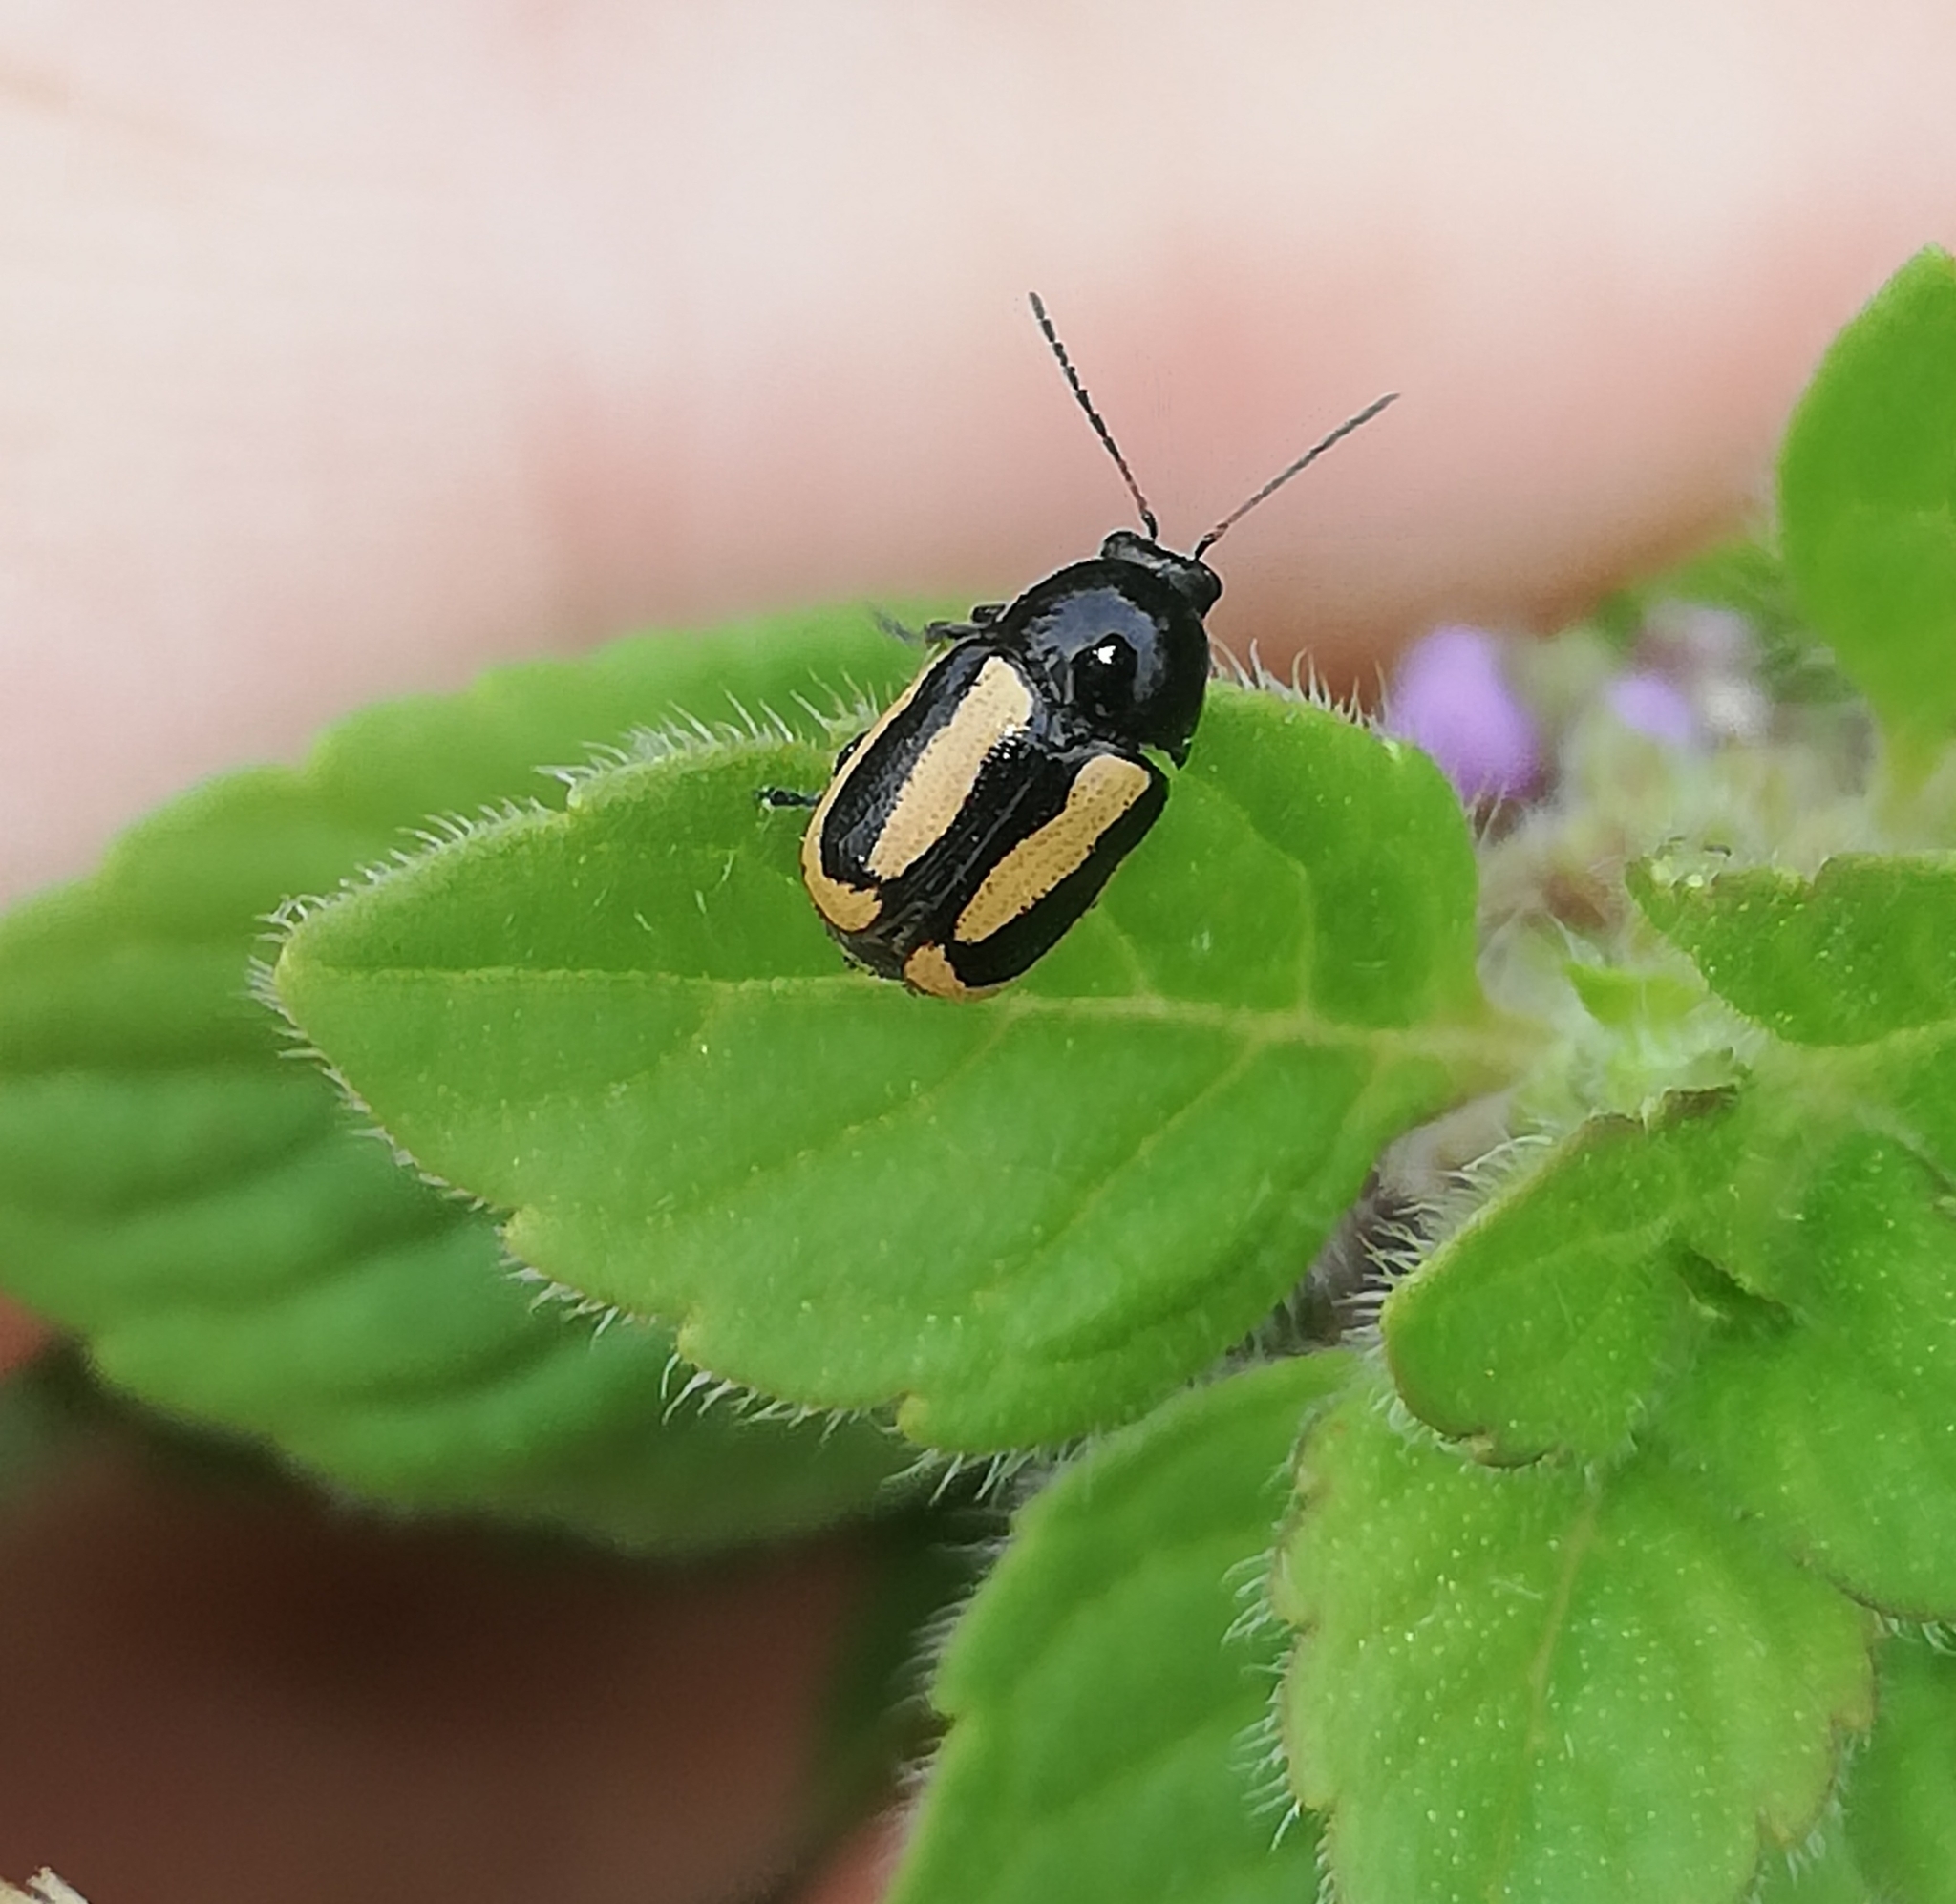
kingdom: Animalia
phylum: Arthropoda
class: Insecta
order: Coleoptera
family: Chrysomelidae
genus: Acalymma
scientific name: Acalymma vittatum
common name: Striped cucumber beetle
